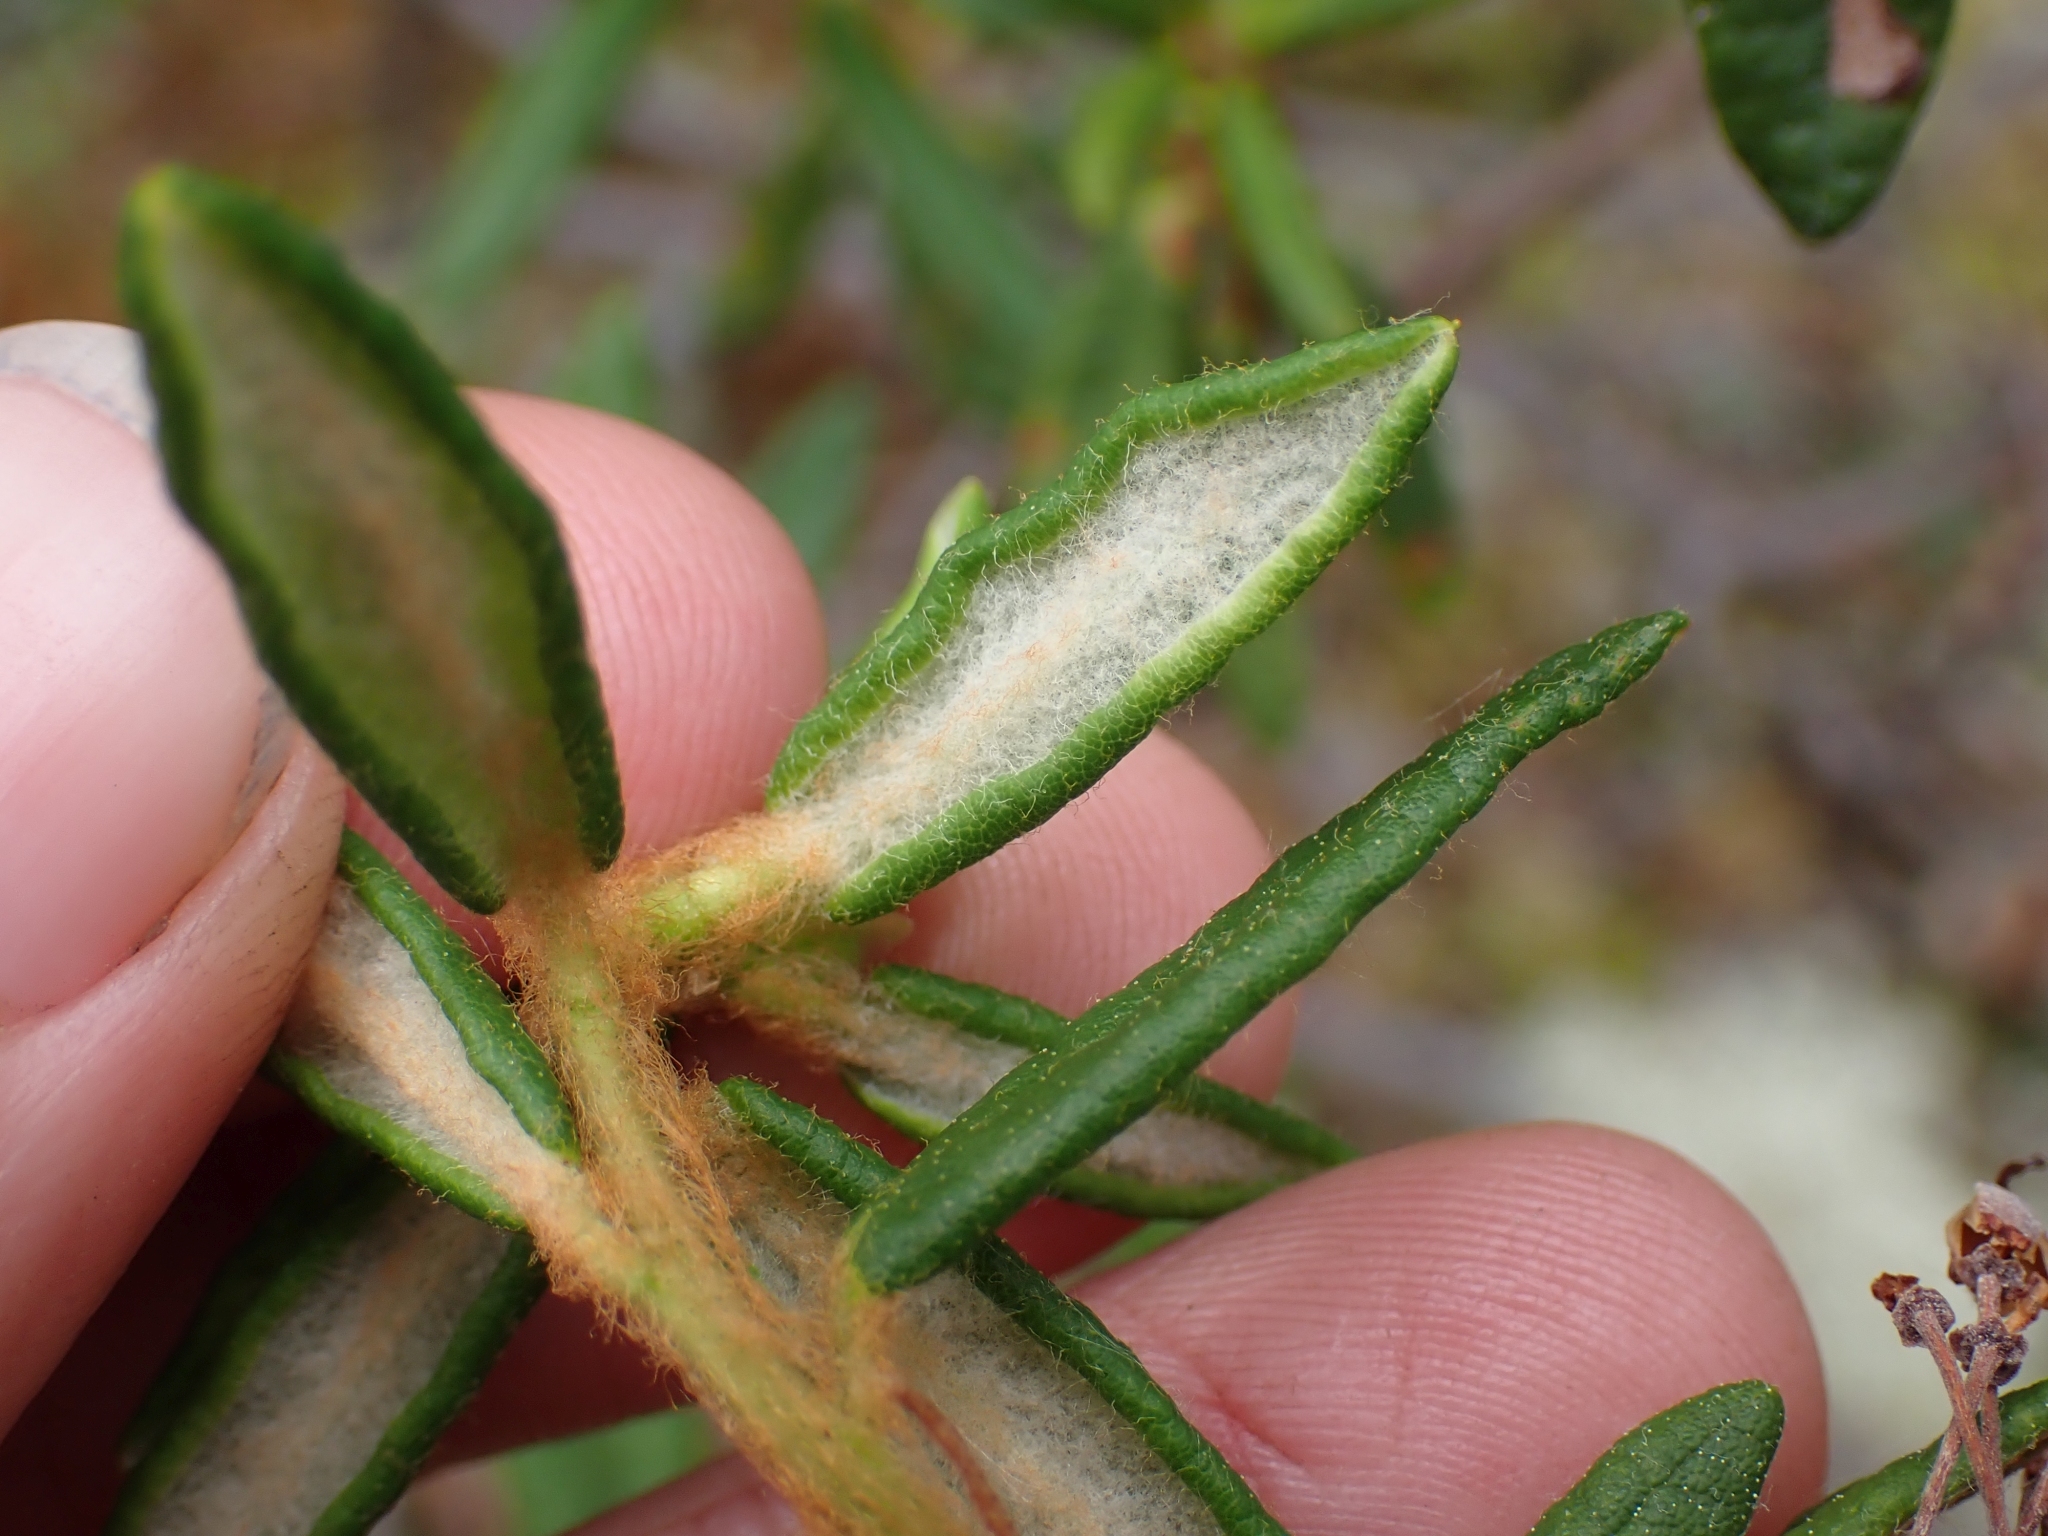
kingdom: Plantae
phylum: Tracheophyta
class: Magnoliopsida
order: Ericales
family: Ericaceae
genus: Rhododendron
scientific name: Rhododendron groenlandicum
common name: Bog labrador tea
